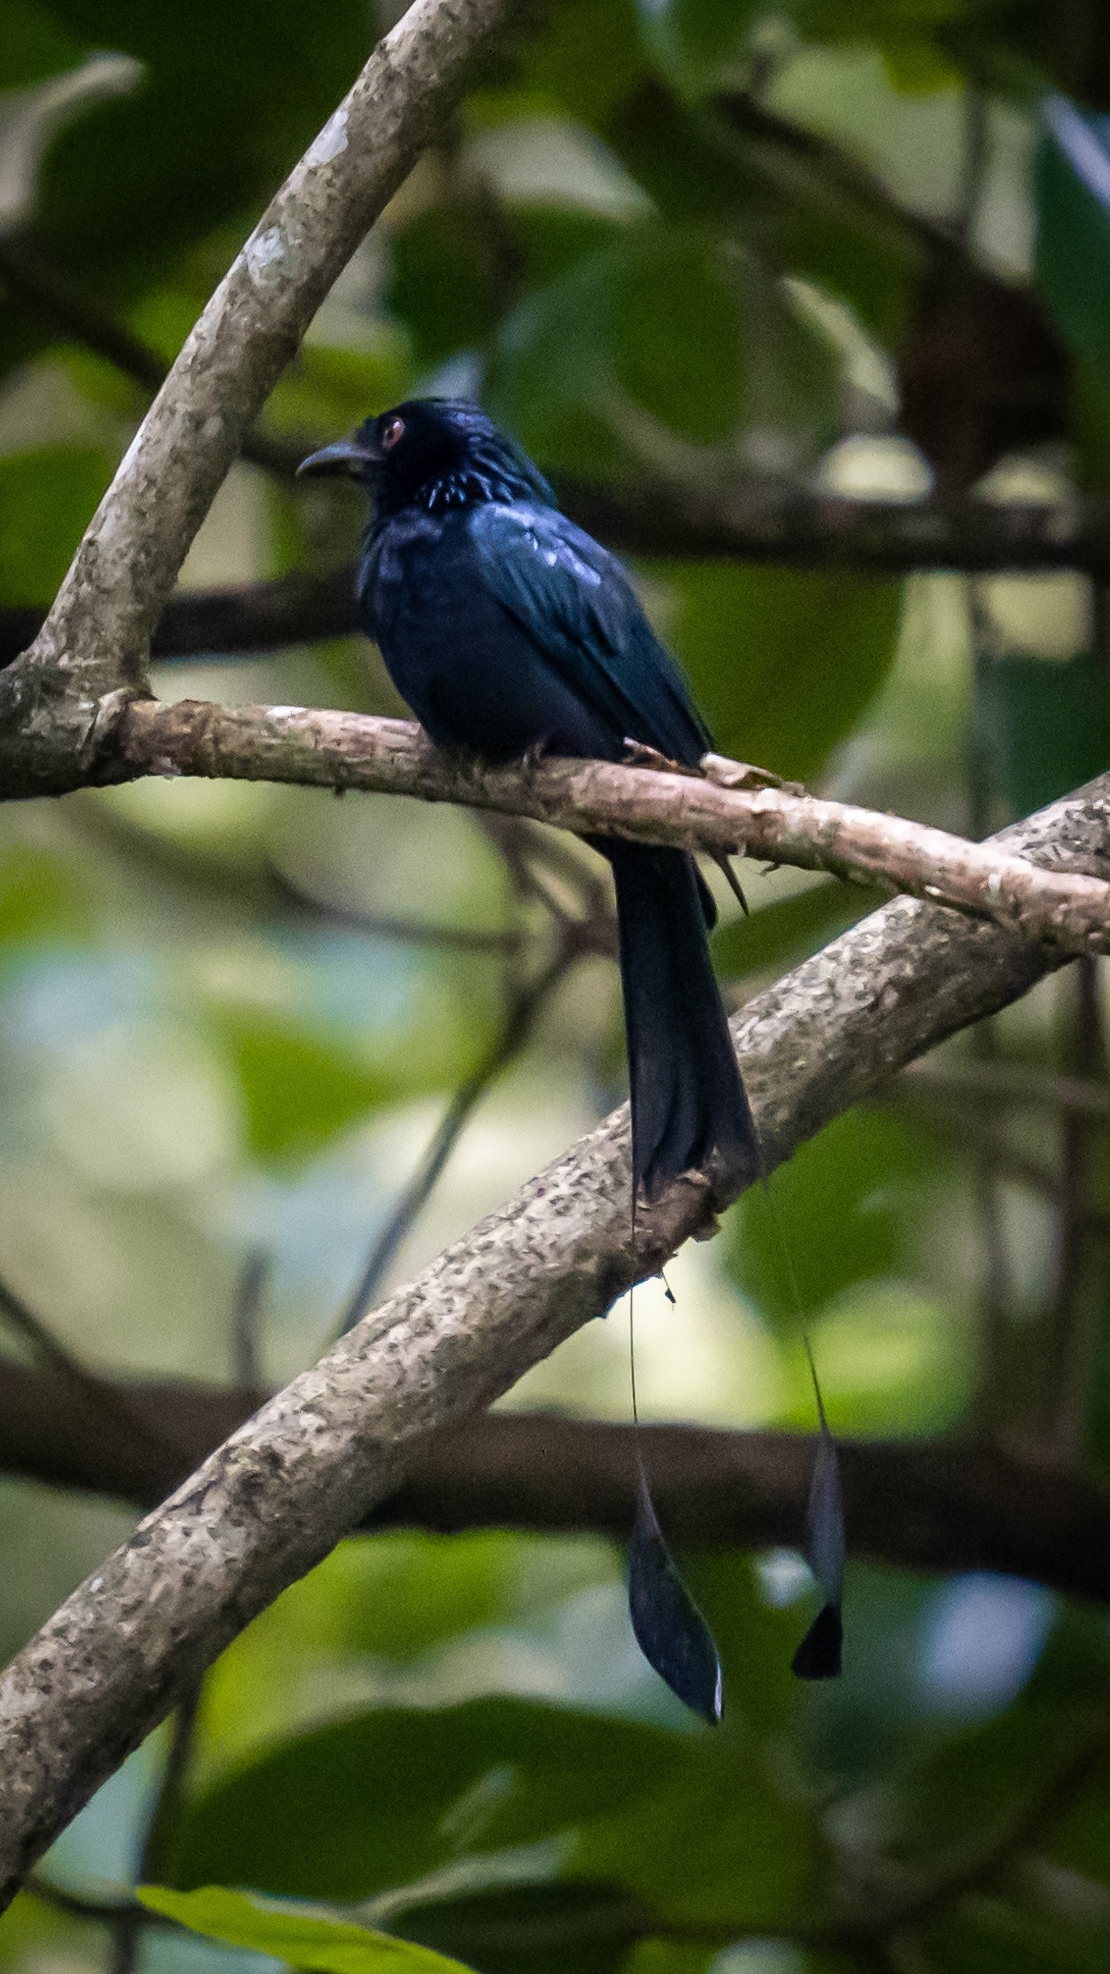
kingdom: Animalia
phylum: Chordata
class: Aves
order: Passeriformes
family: Dicruridae
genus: Dicrurus
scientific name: Dicrurus paradiseus
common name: Greater racket-tailed drongo
